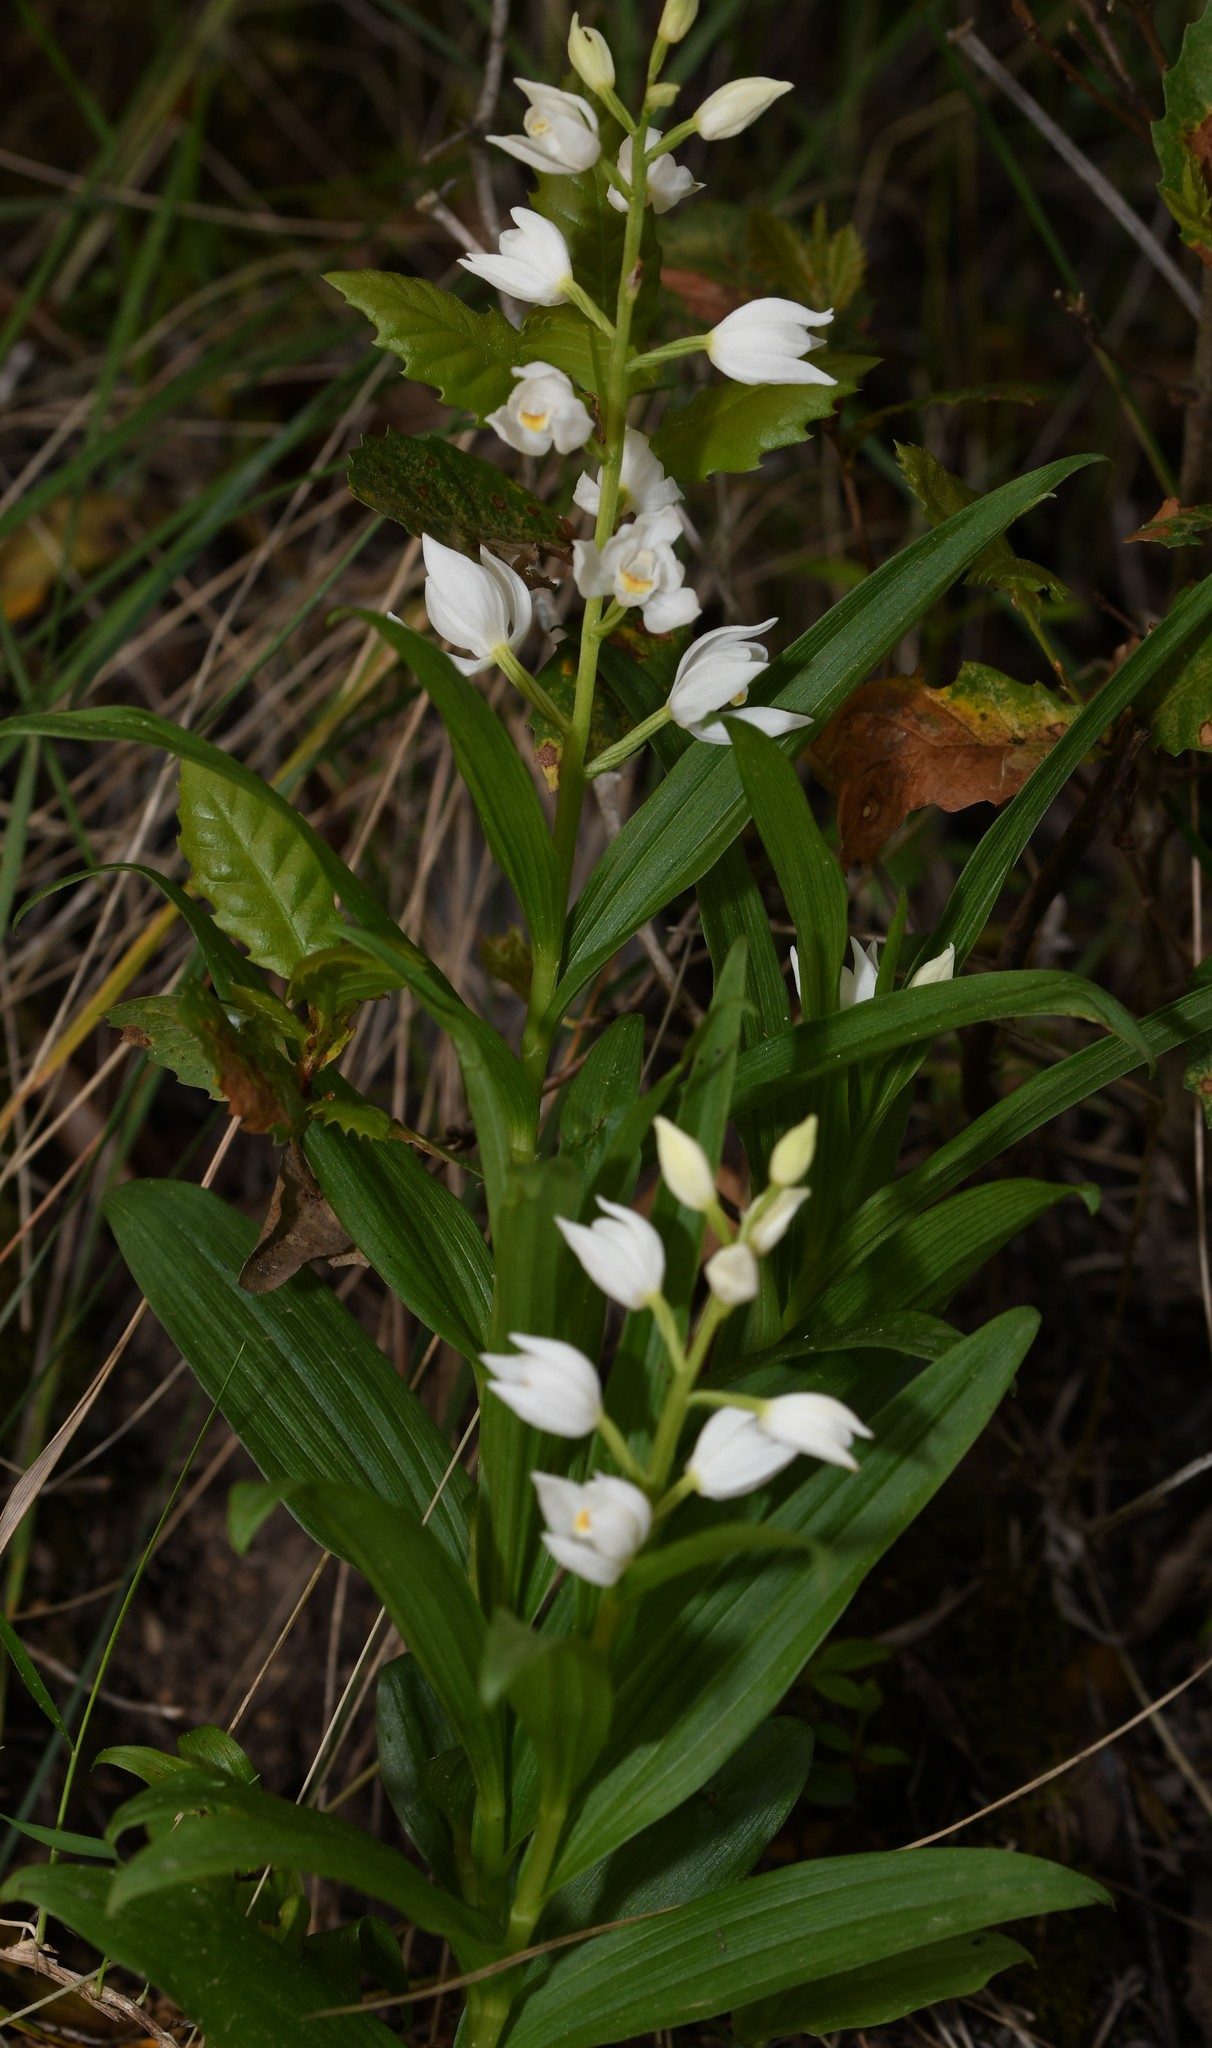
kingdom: Plantae
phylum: Tracheophyta
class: Liliopsida
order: Asparagales
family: Orchidaceae
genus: Cephalanthera
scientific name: Cephalanthera longifolia
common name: Narrow-leaved helleborine
